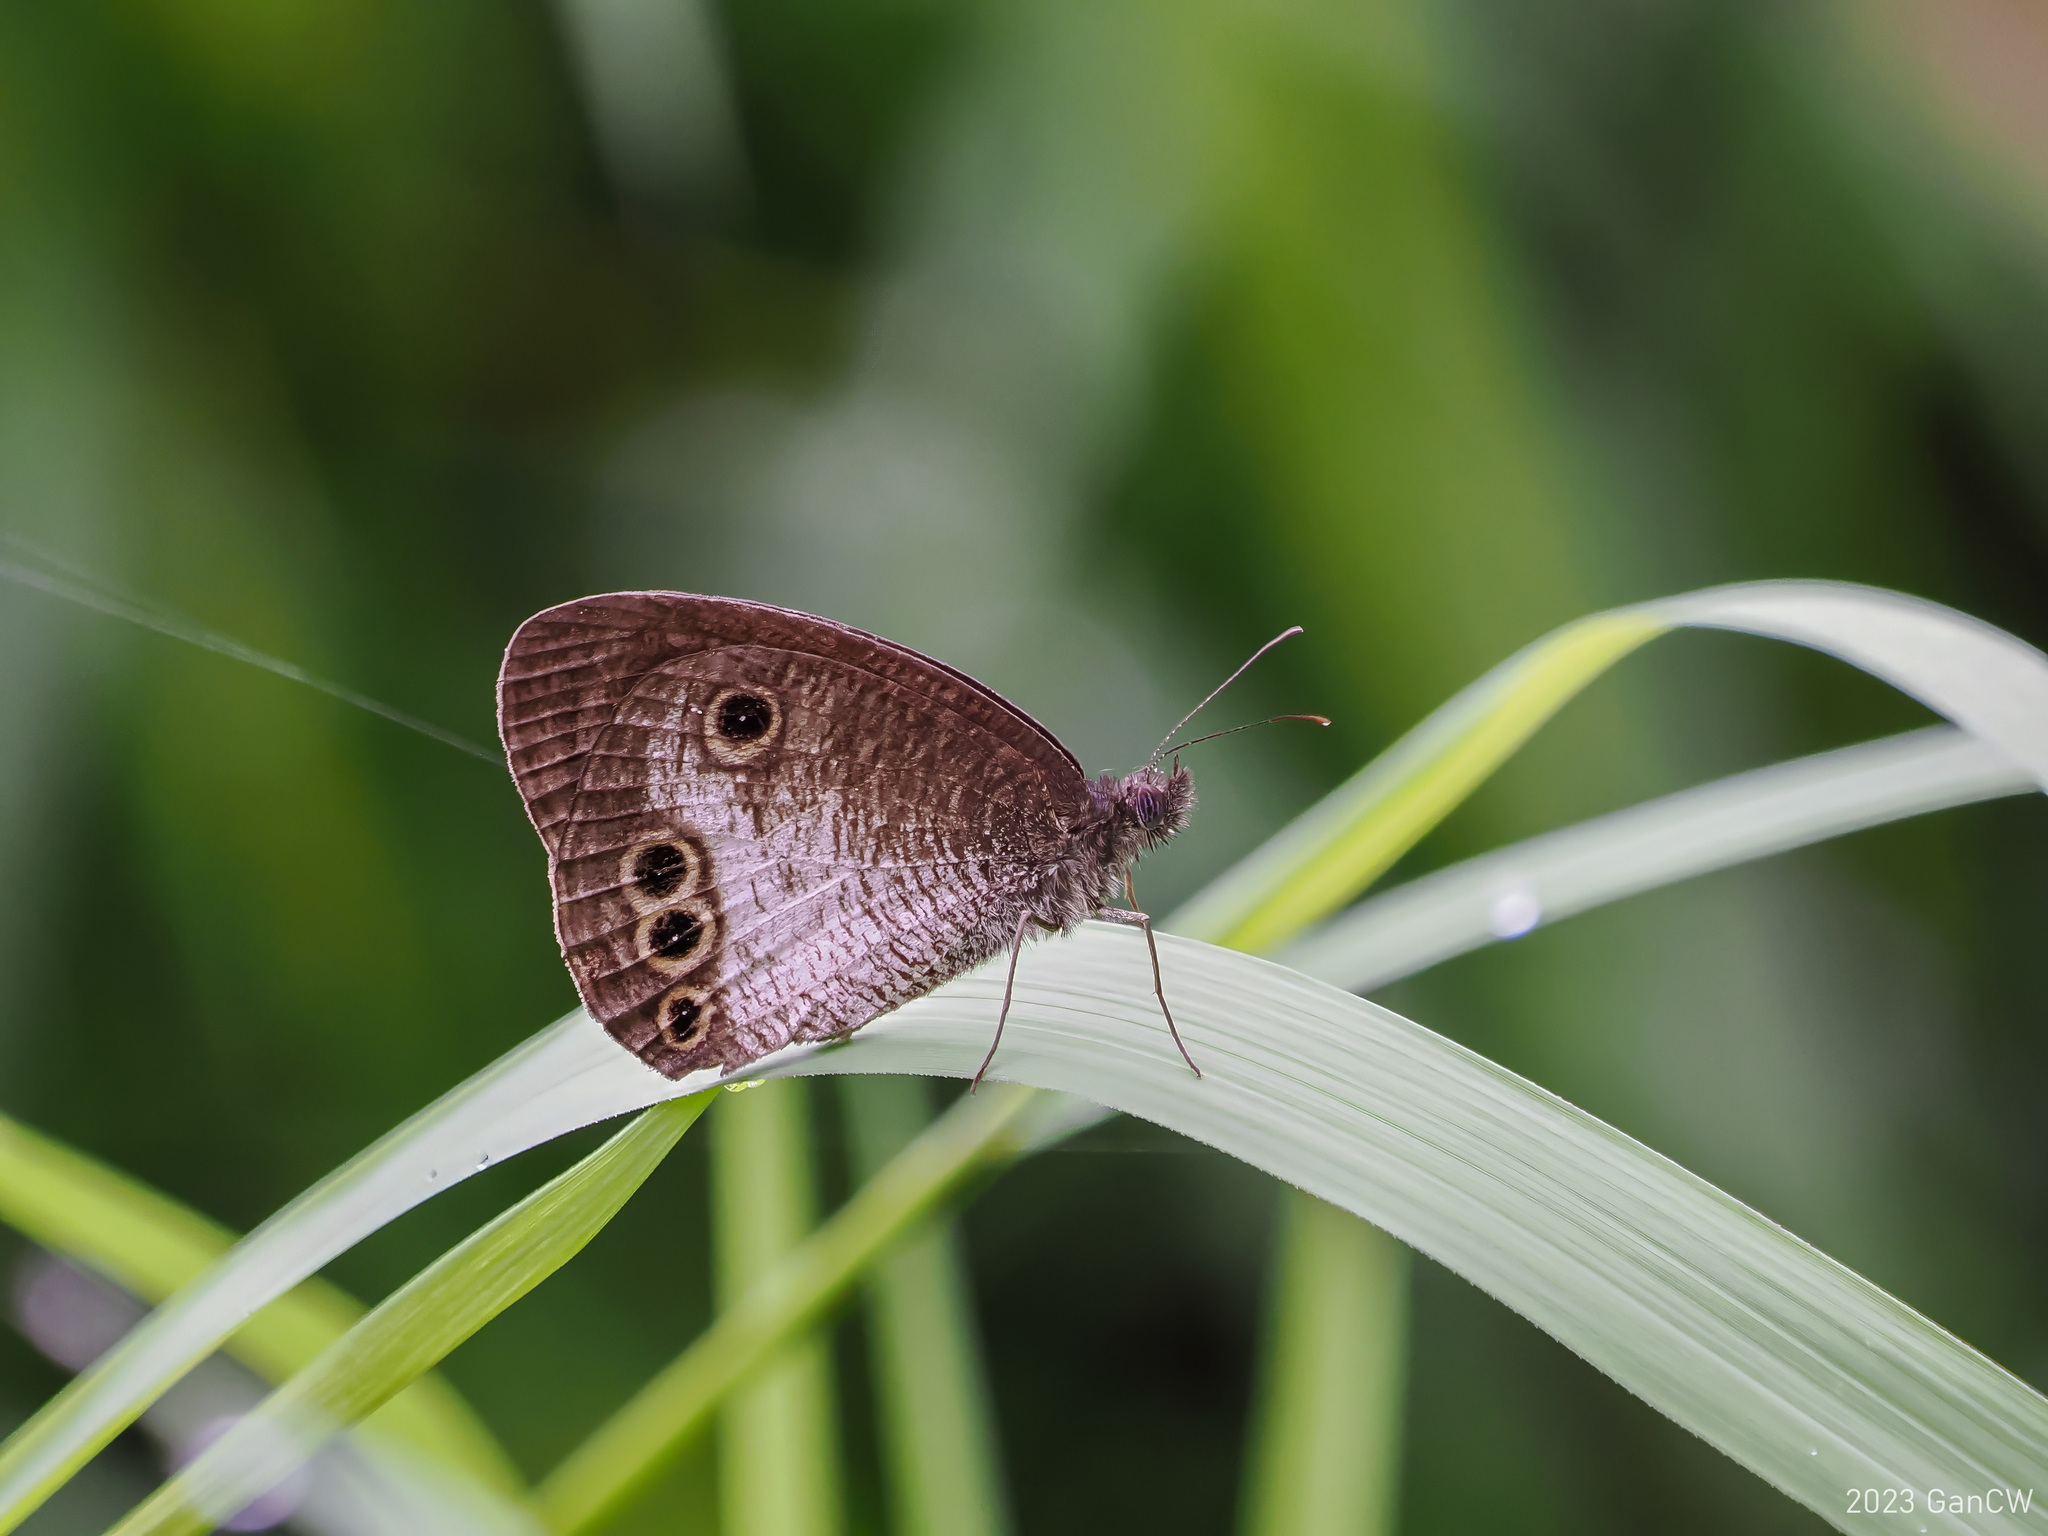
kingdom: Animalia
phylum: Arthropoda
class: Insecta
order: Lepidoptera
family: Nymphalidae
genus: Ypthima
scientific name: Ypthima gawalisi
